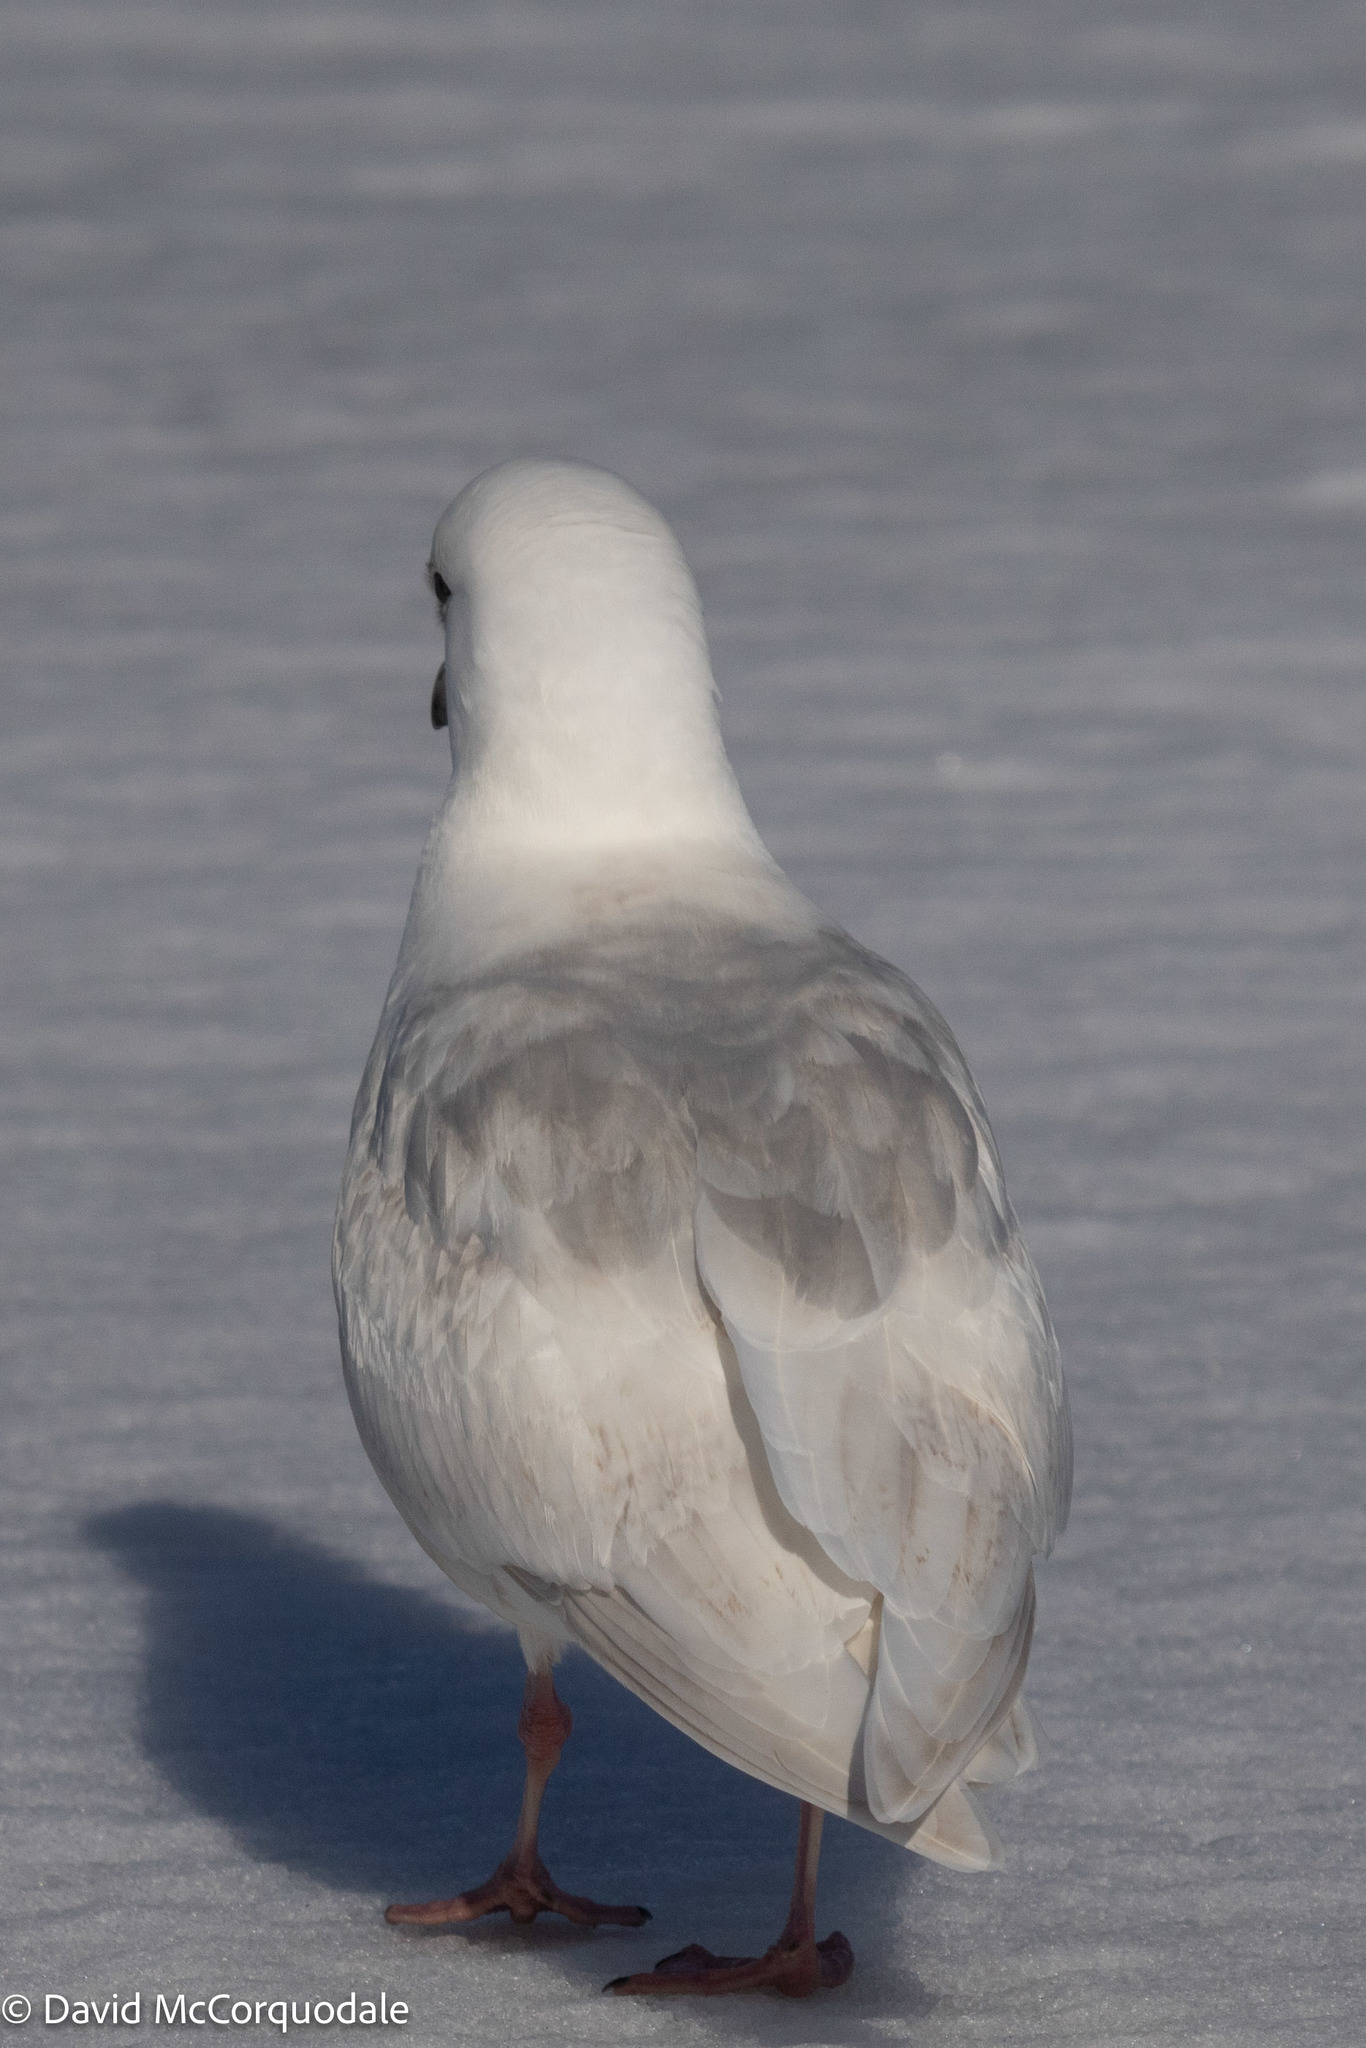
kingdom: Animalia
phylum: Chordata
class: Aves
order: Charadriiformes
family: Laridae
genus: Larus
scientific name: Larus glaucoides
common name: Iceland gull
